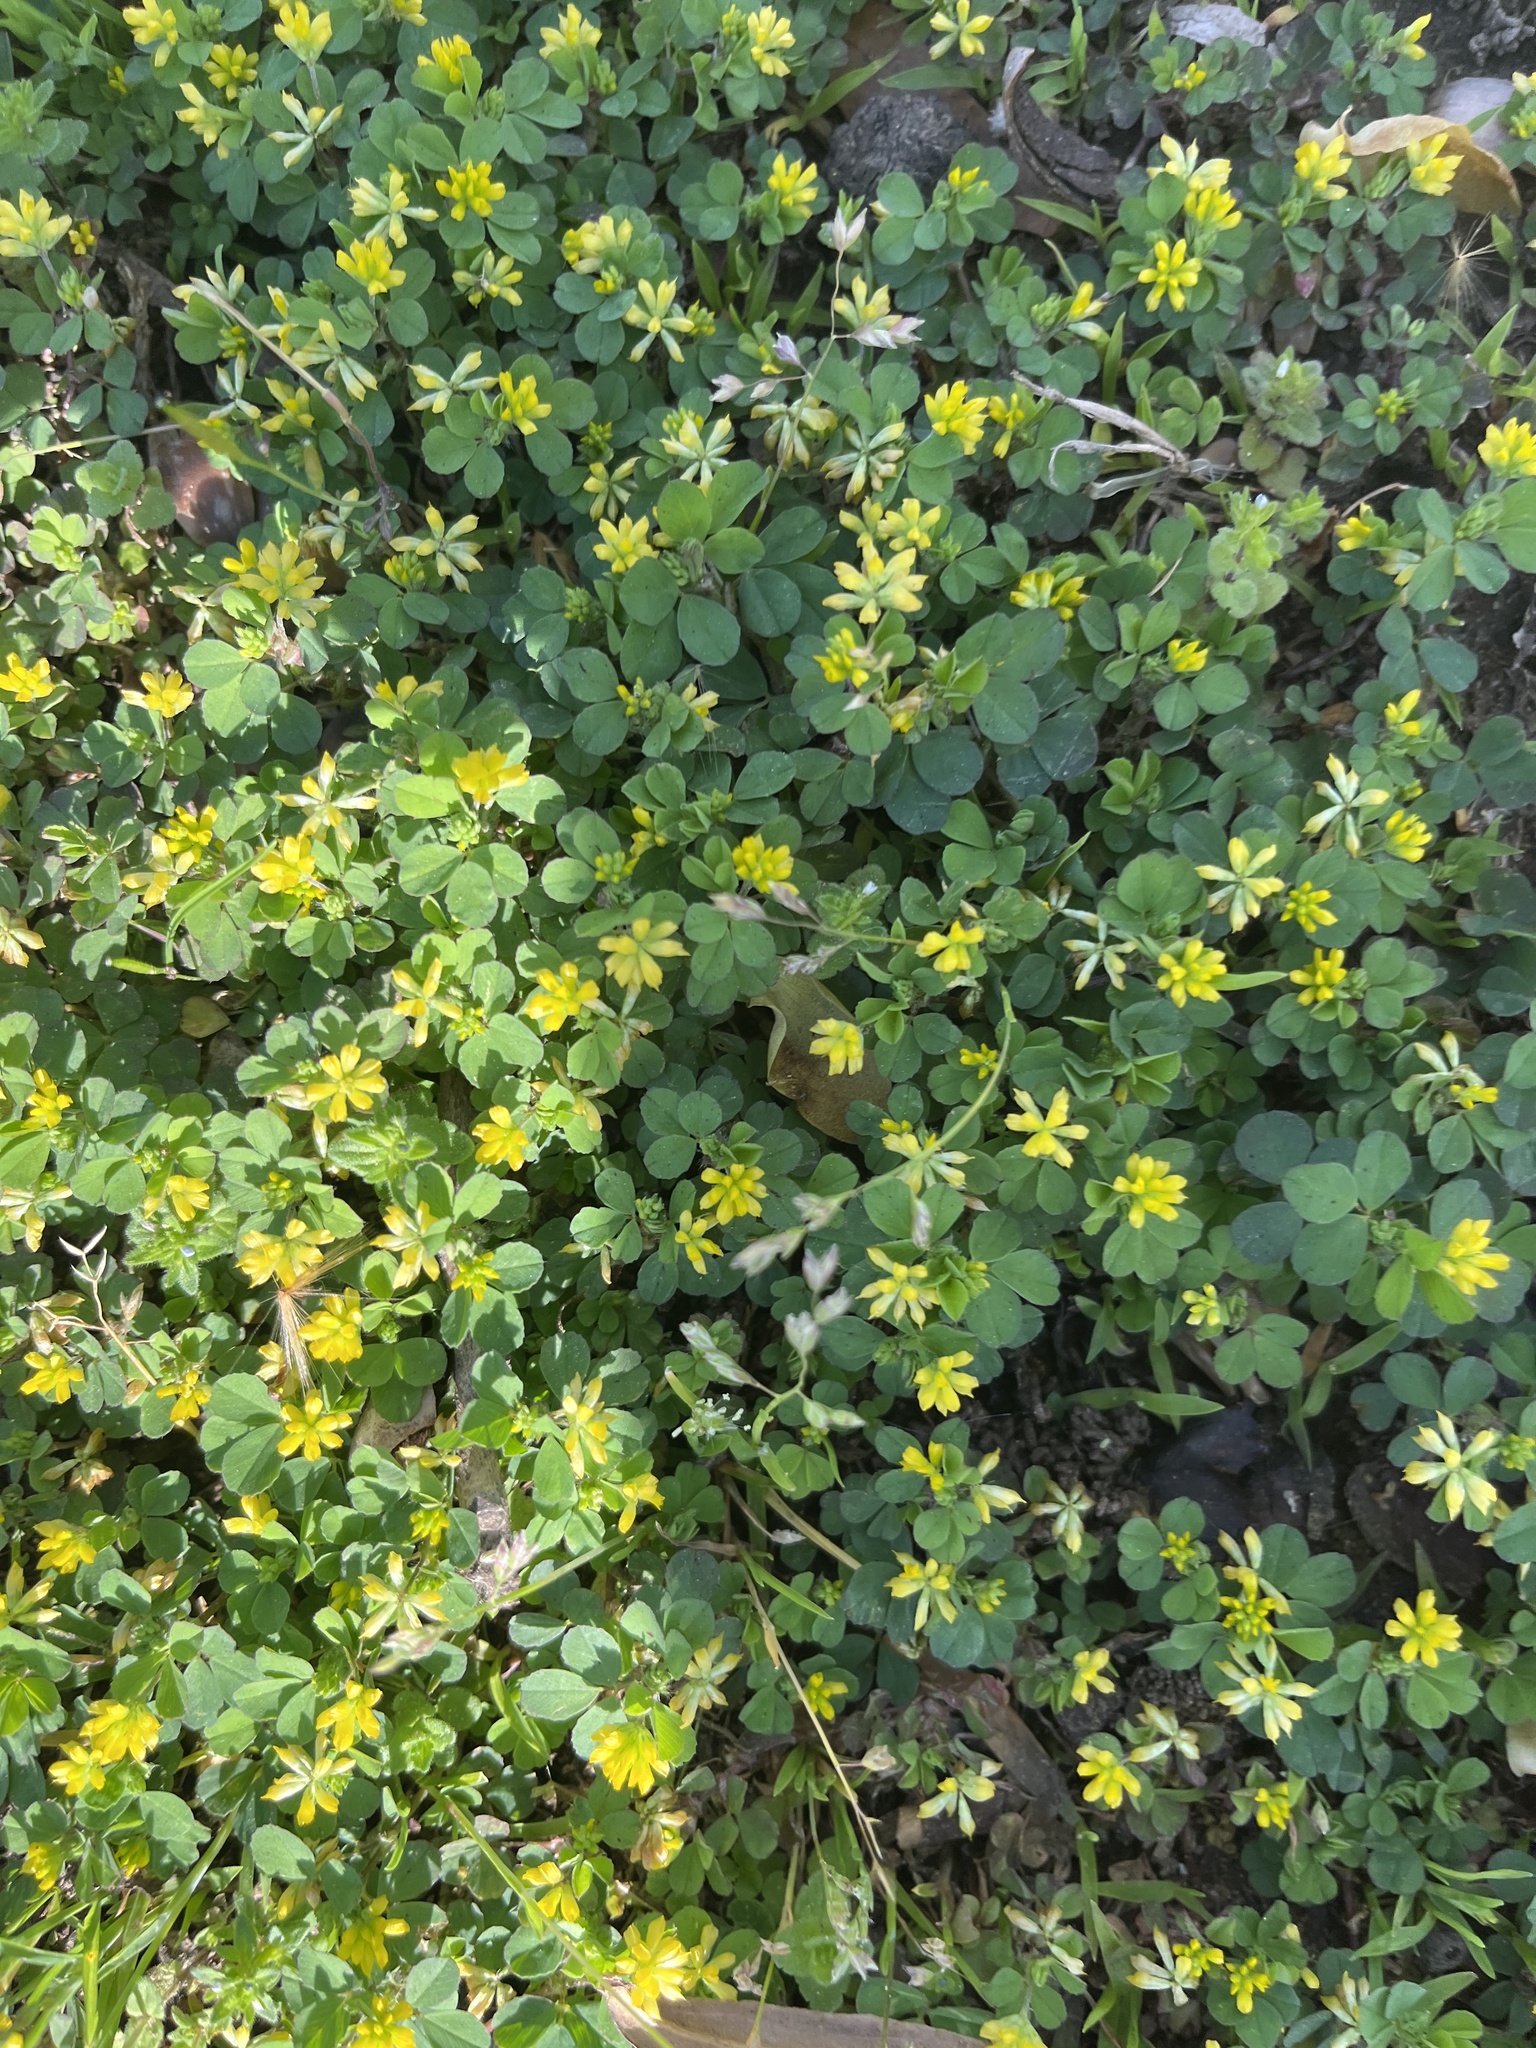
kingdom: Plantae
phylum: Tracheophyta
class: Magnoliopsida
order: Fabales
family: Fabaceae
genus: Trifolium
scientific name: Trifolium dubium
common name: Suckling clover
